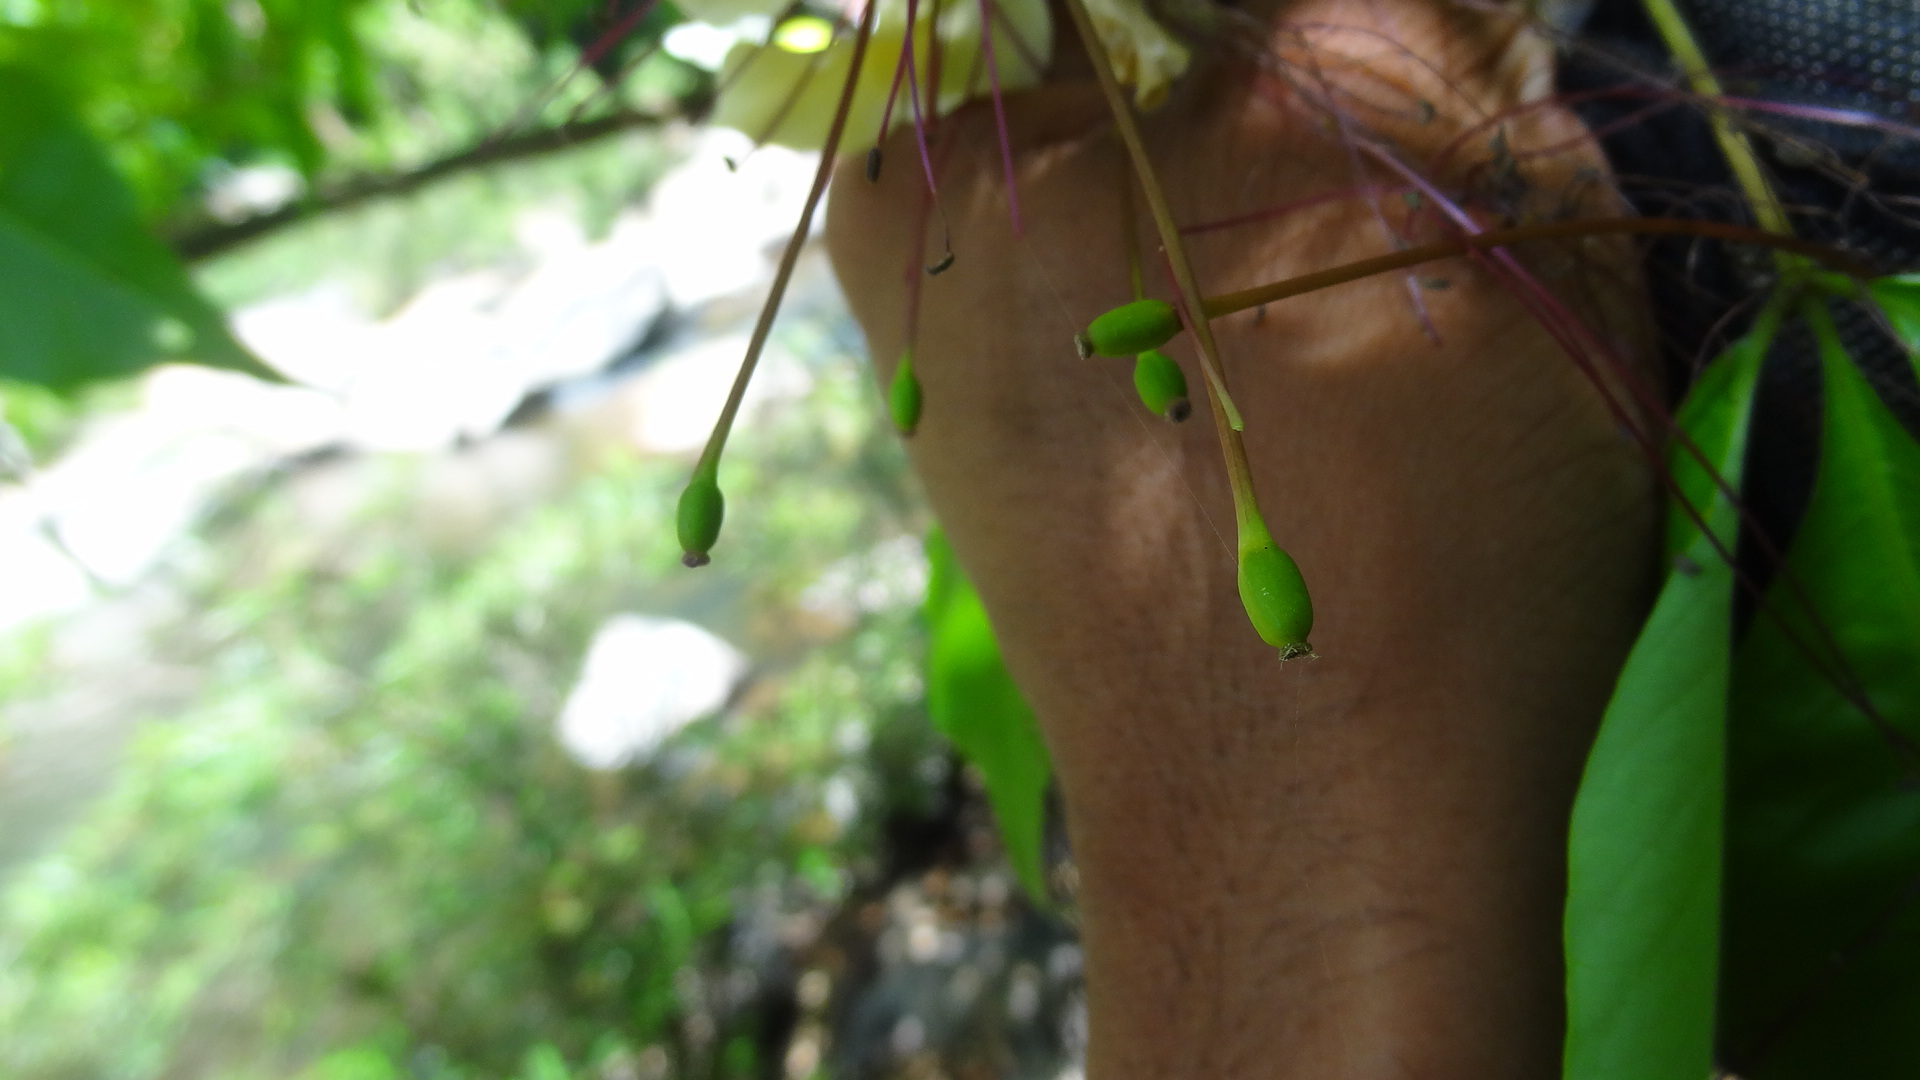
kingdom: Plantae
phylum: Tracheophyta
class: Magnoliopsida
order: Brassicales
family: Capparaceae
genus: Crateva
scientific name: Crateva magna
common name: Three-leaf-caper
